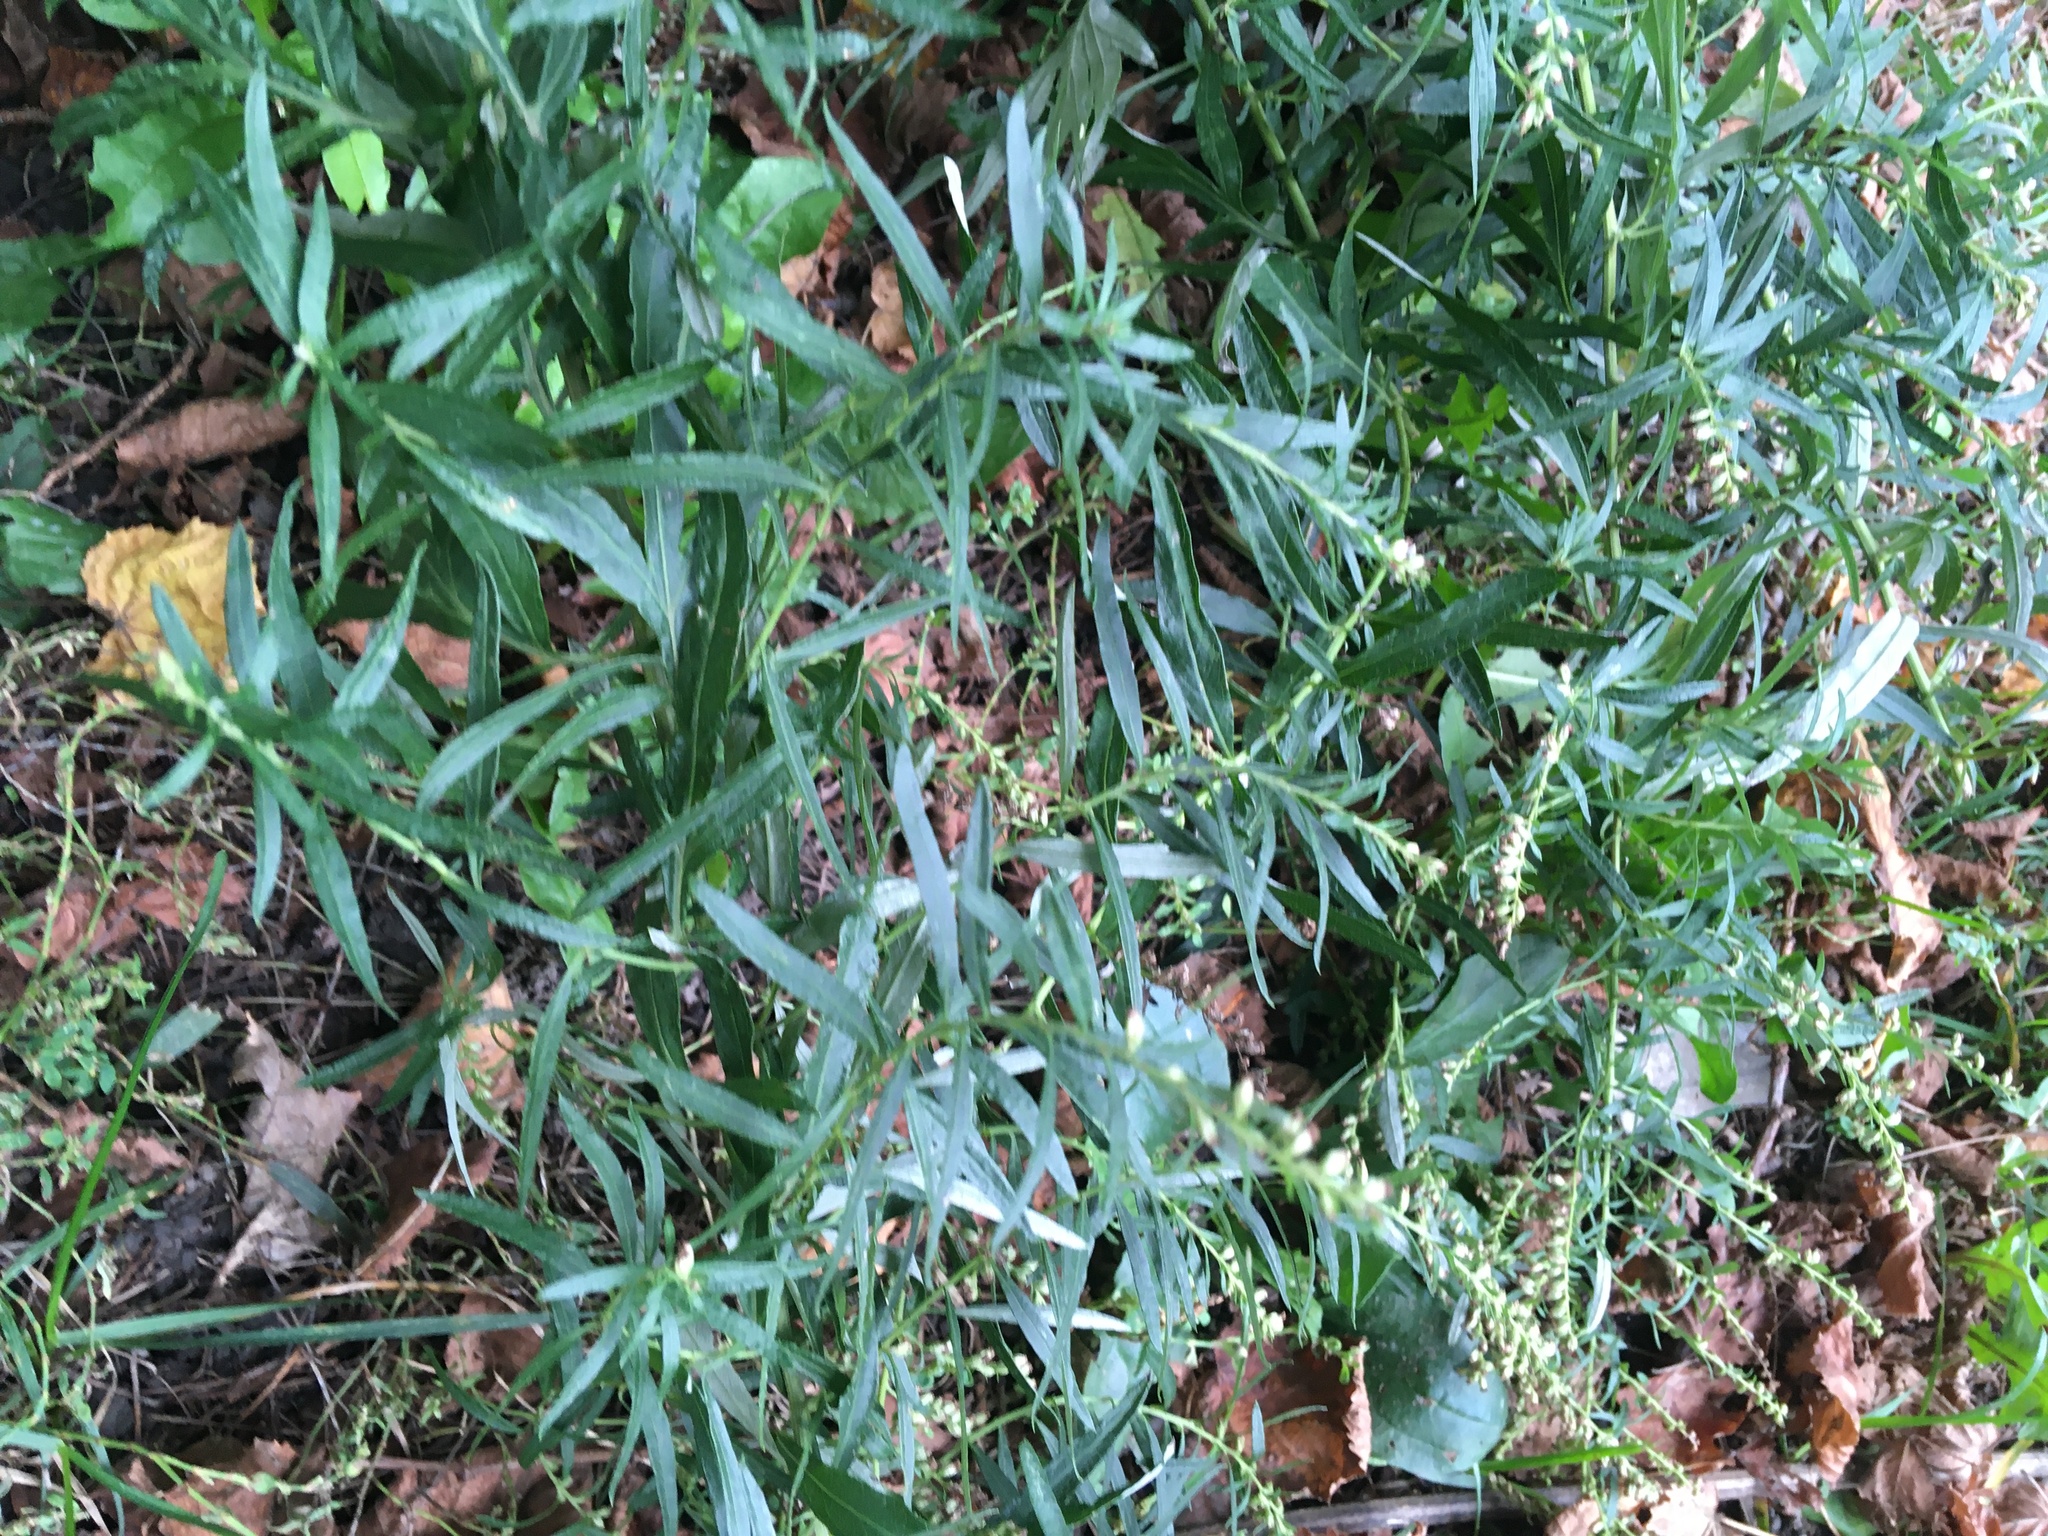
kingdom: Plantae
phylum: Tracheophyta
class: Magnoliopsida
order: Asterales
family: Asteraceae
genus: Artemisia
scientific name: Artemisia vulgaris
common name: Mugwort
